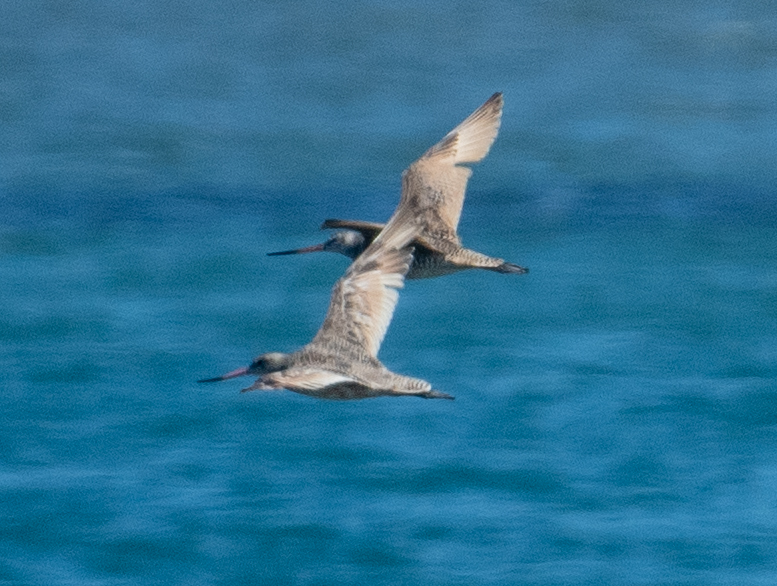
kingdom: Animalia
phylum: Chordata
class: Aves
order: Charadriiformes
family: Scolopacidae
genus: Limosa
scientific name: Limosa fedoa
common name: Marbled godwit
